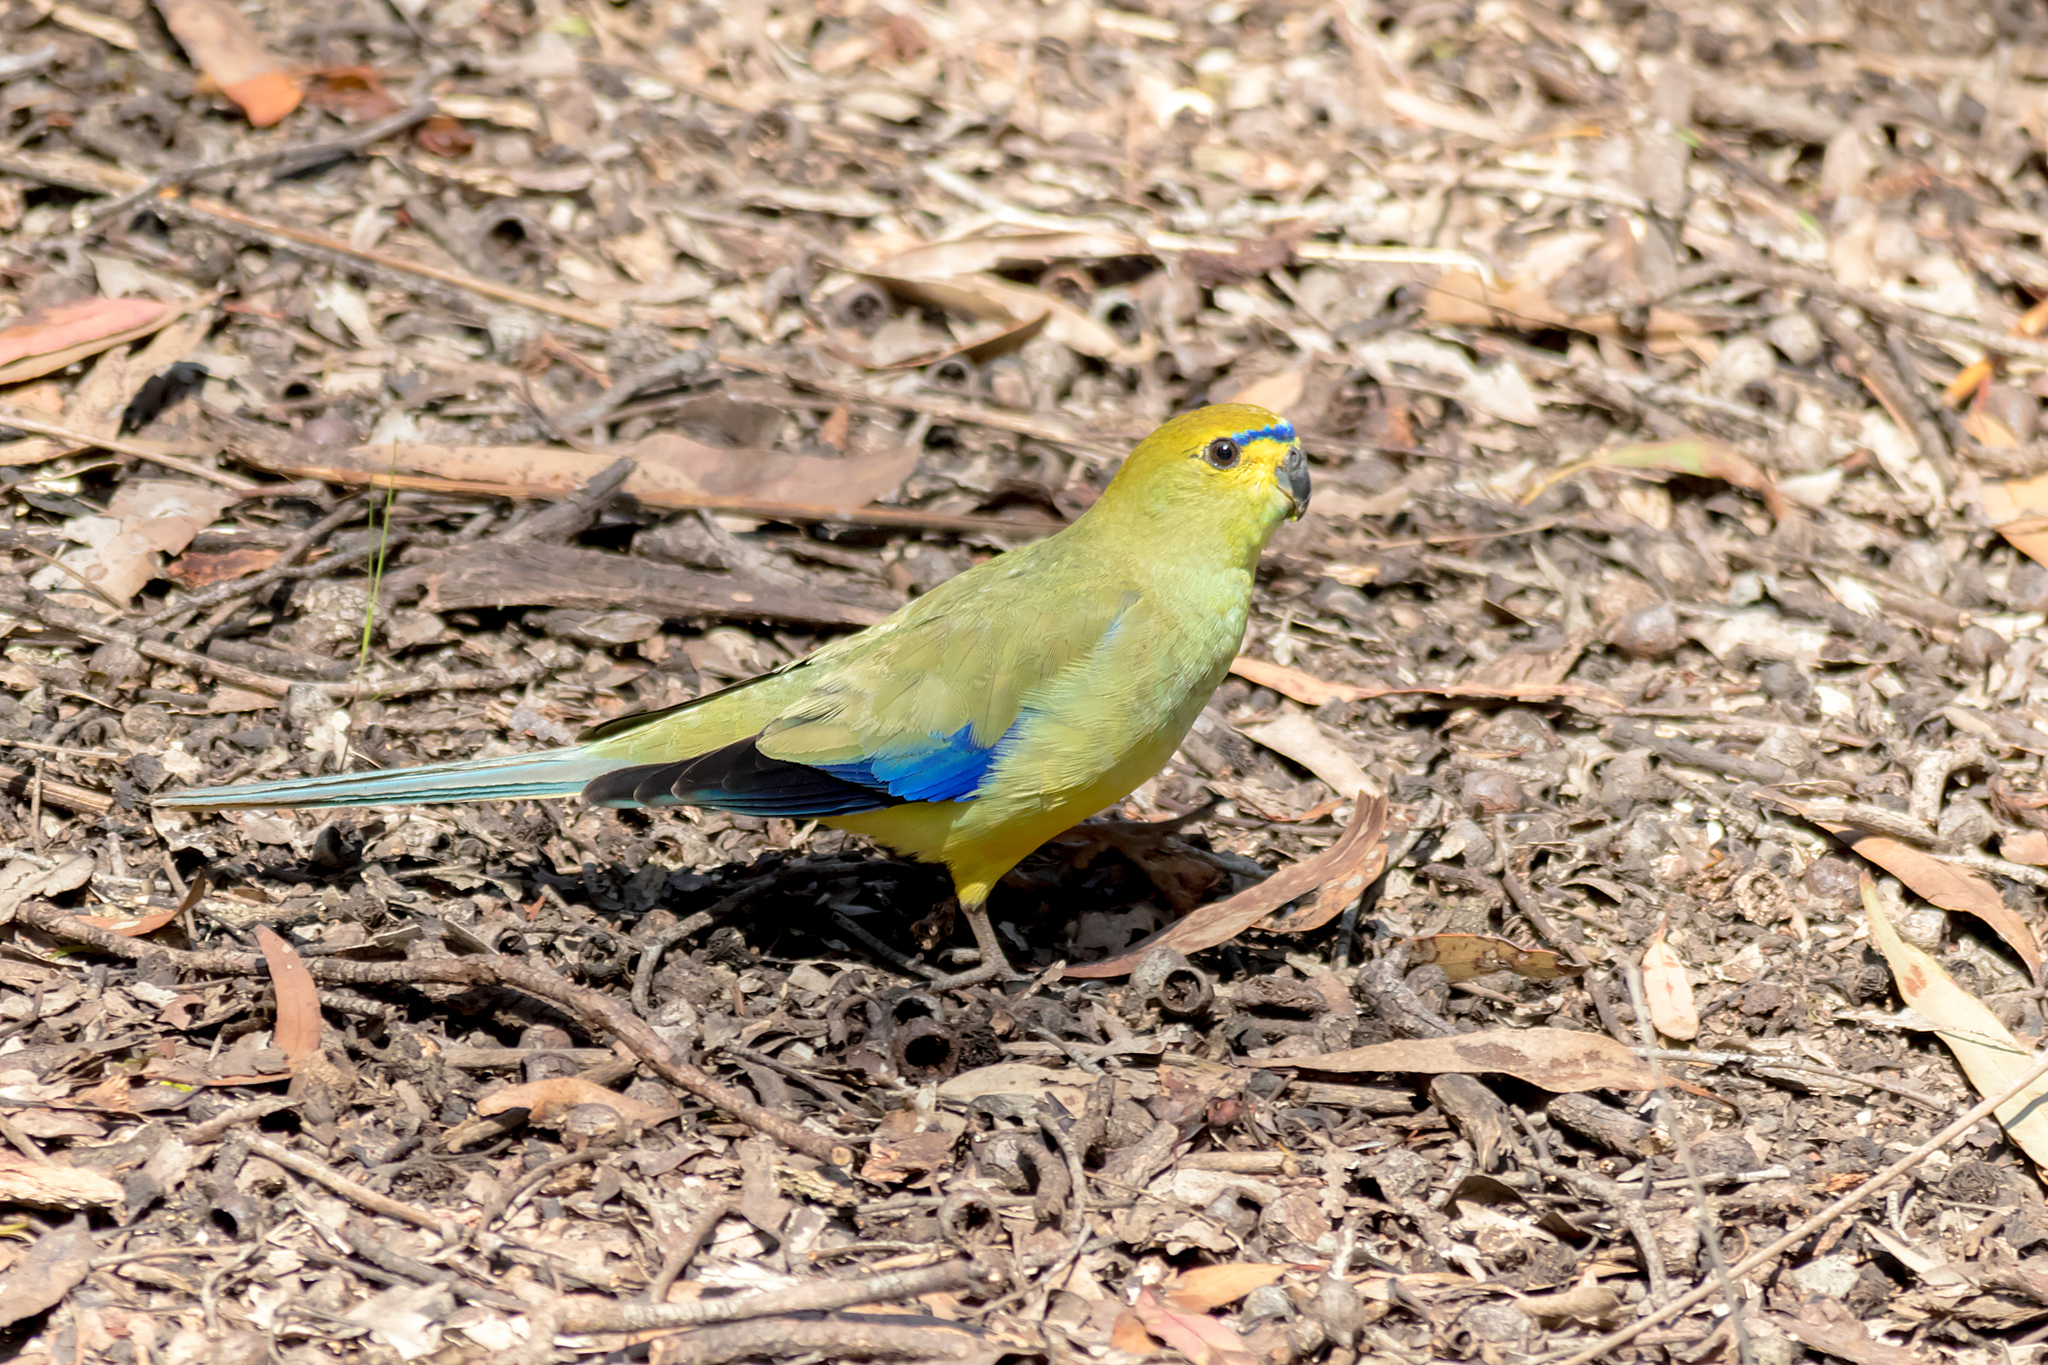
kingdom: Animalia
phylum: Chordata
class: Aves
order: Psittaciformes
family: Psittacidae
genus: Neophema
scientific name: Neophema chrysostoma
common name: Blue-winged parrot
